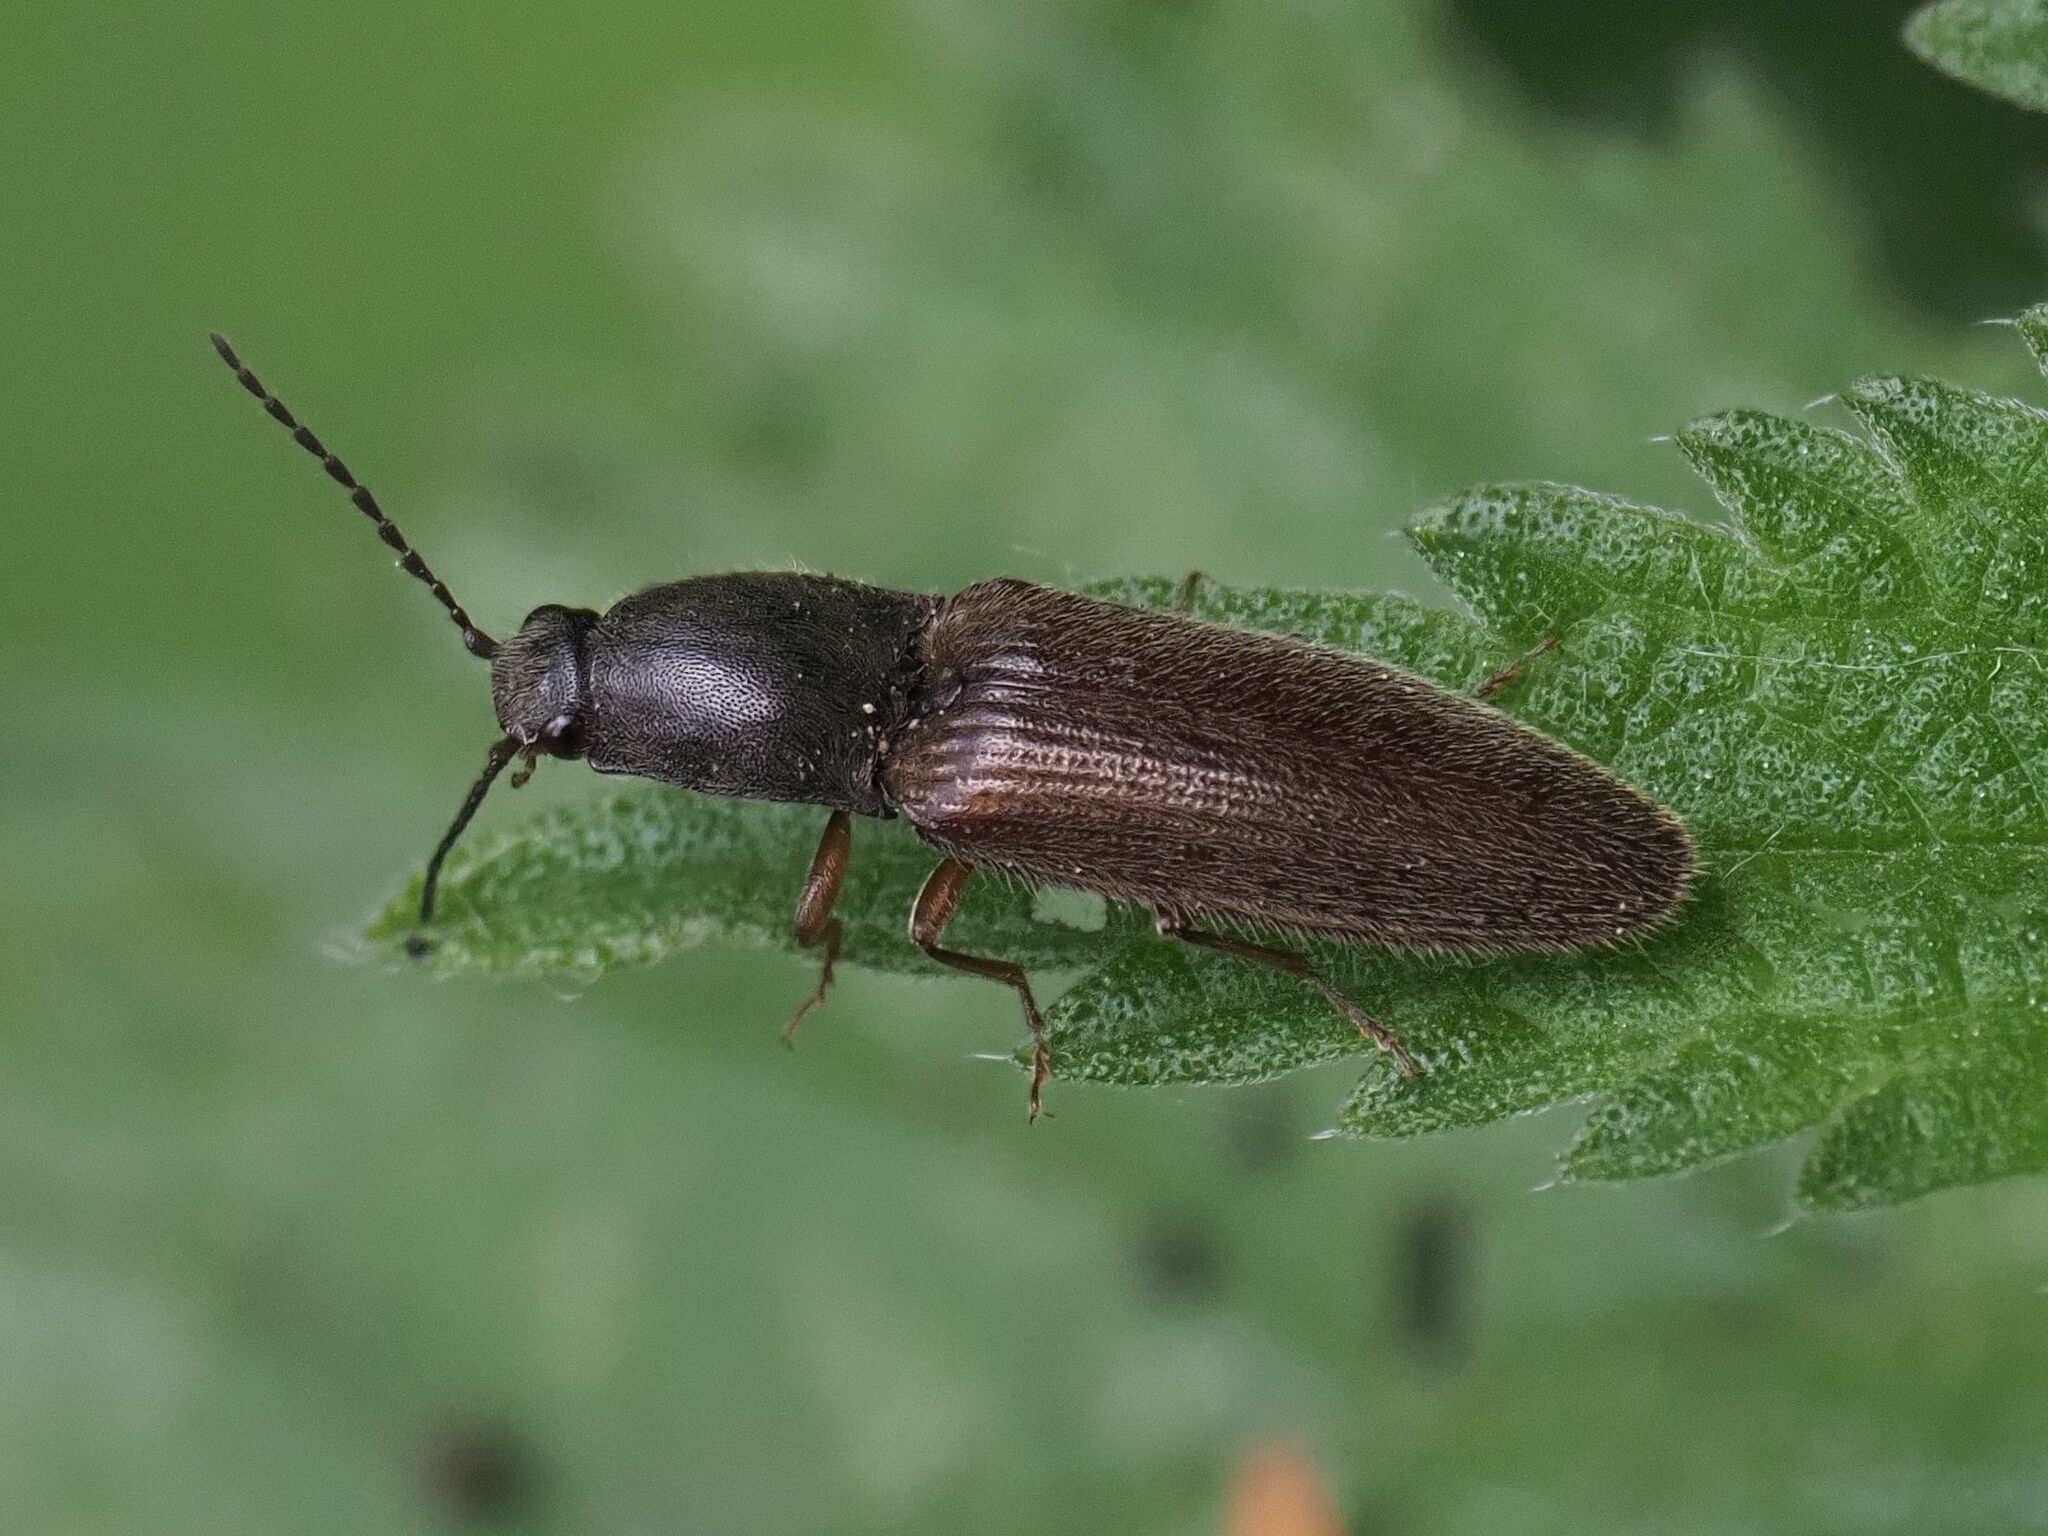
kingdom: Animalia
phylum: Arthropoda
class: Insecta
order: Coleoptera
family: Elateridae
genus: Athous
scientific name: Athous haemorrhoidalis
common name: Red-brown click beetle
